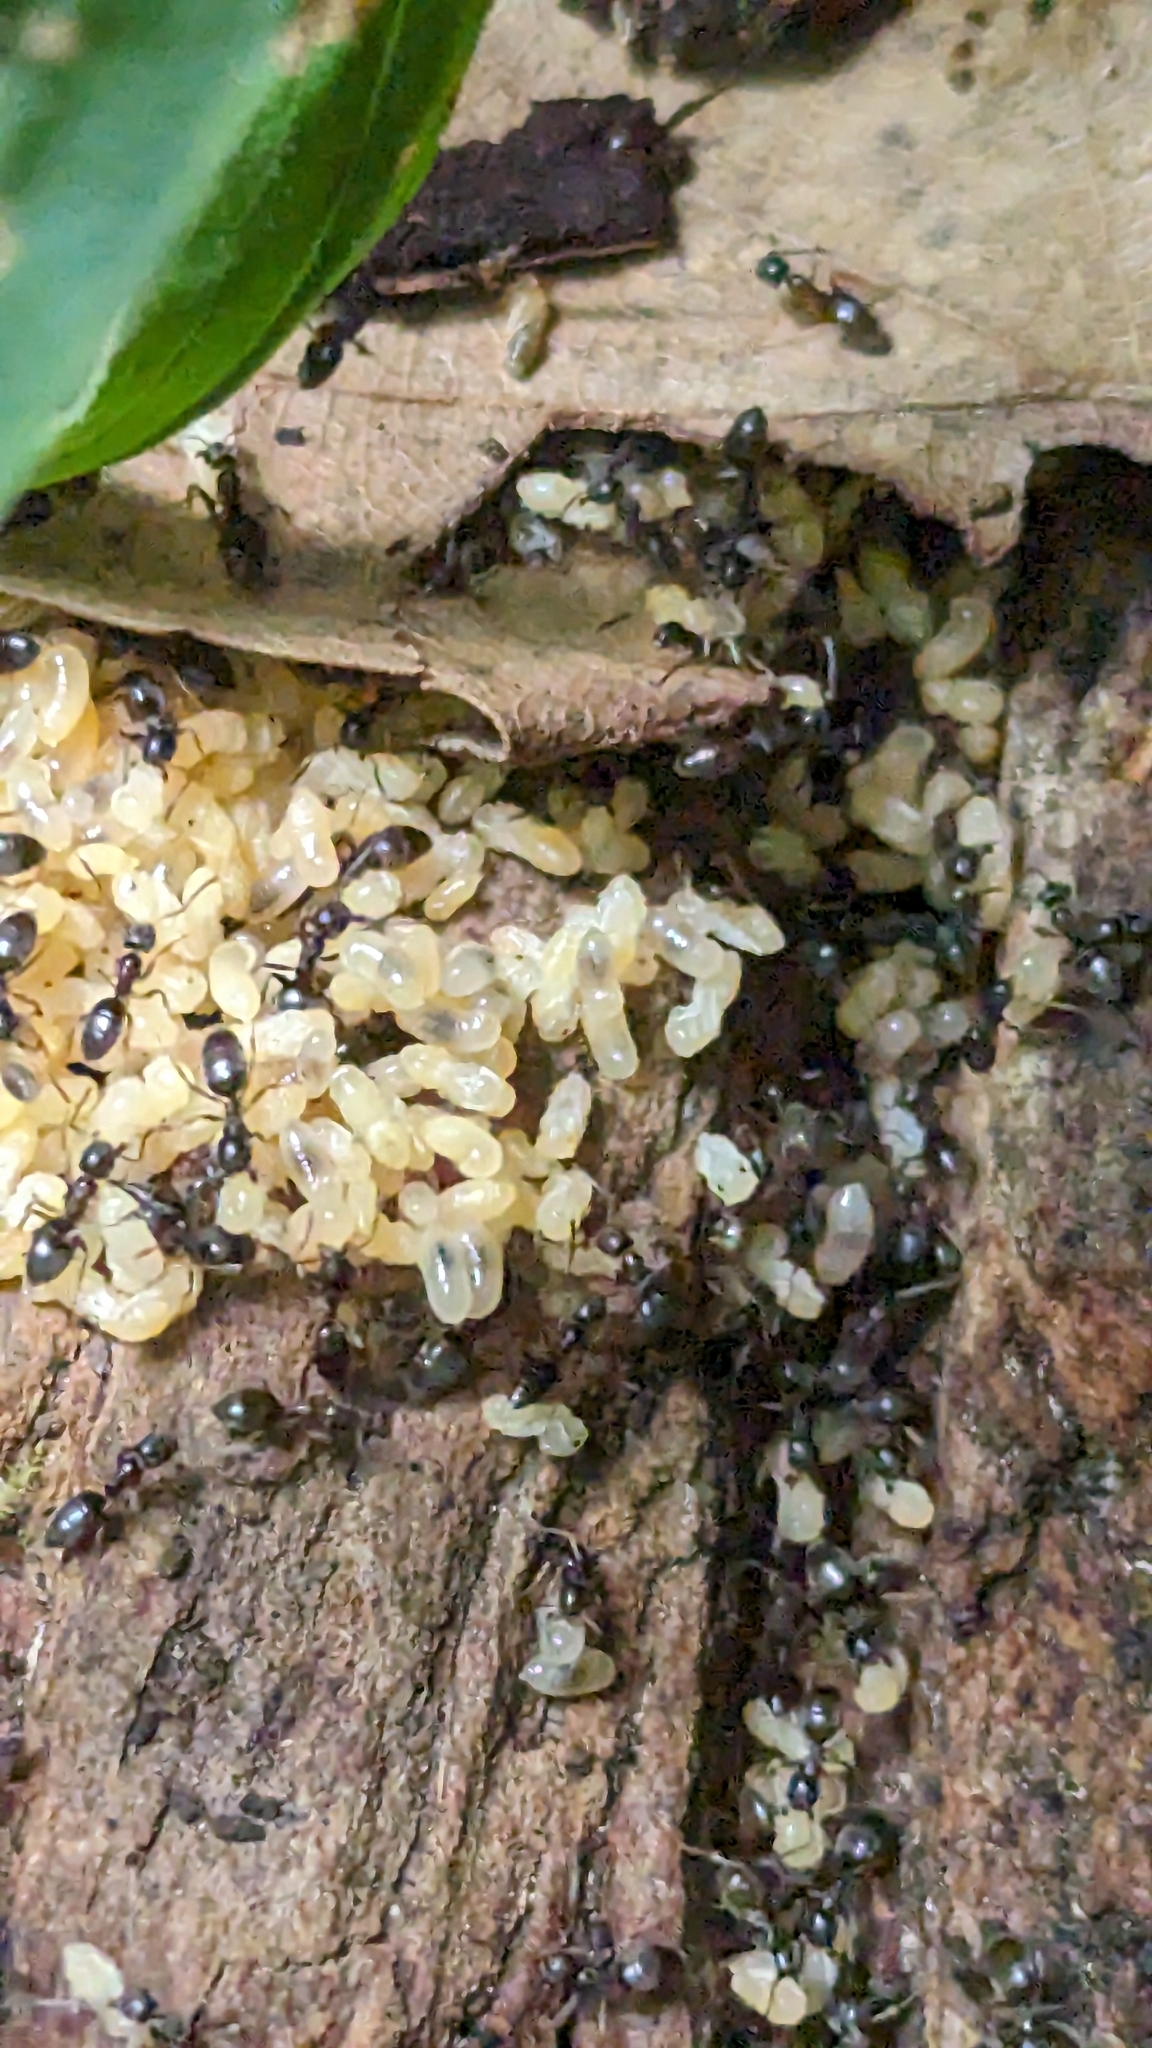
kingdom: Animalia
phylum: Arthropoda
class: Insecta
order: Hymenoptera
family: Formicidae
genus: Tapinoma
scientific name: Tapinoma sessile
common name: Odorous house ant
